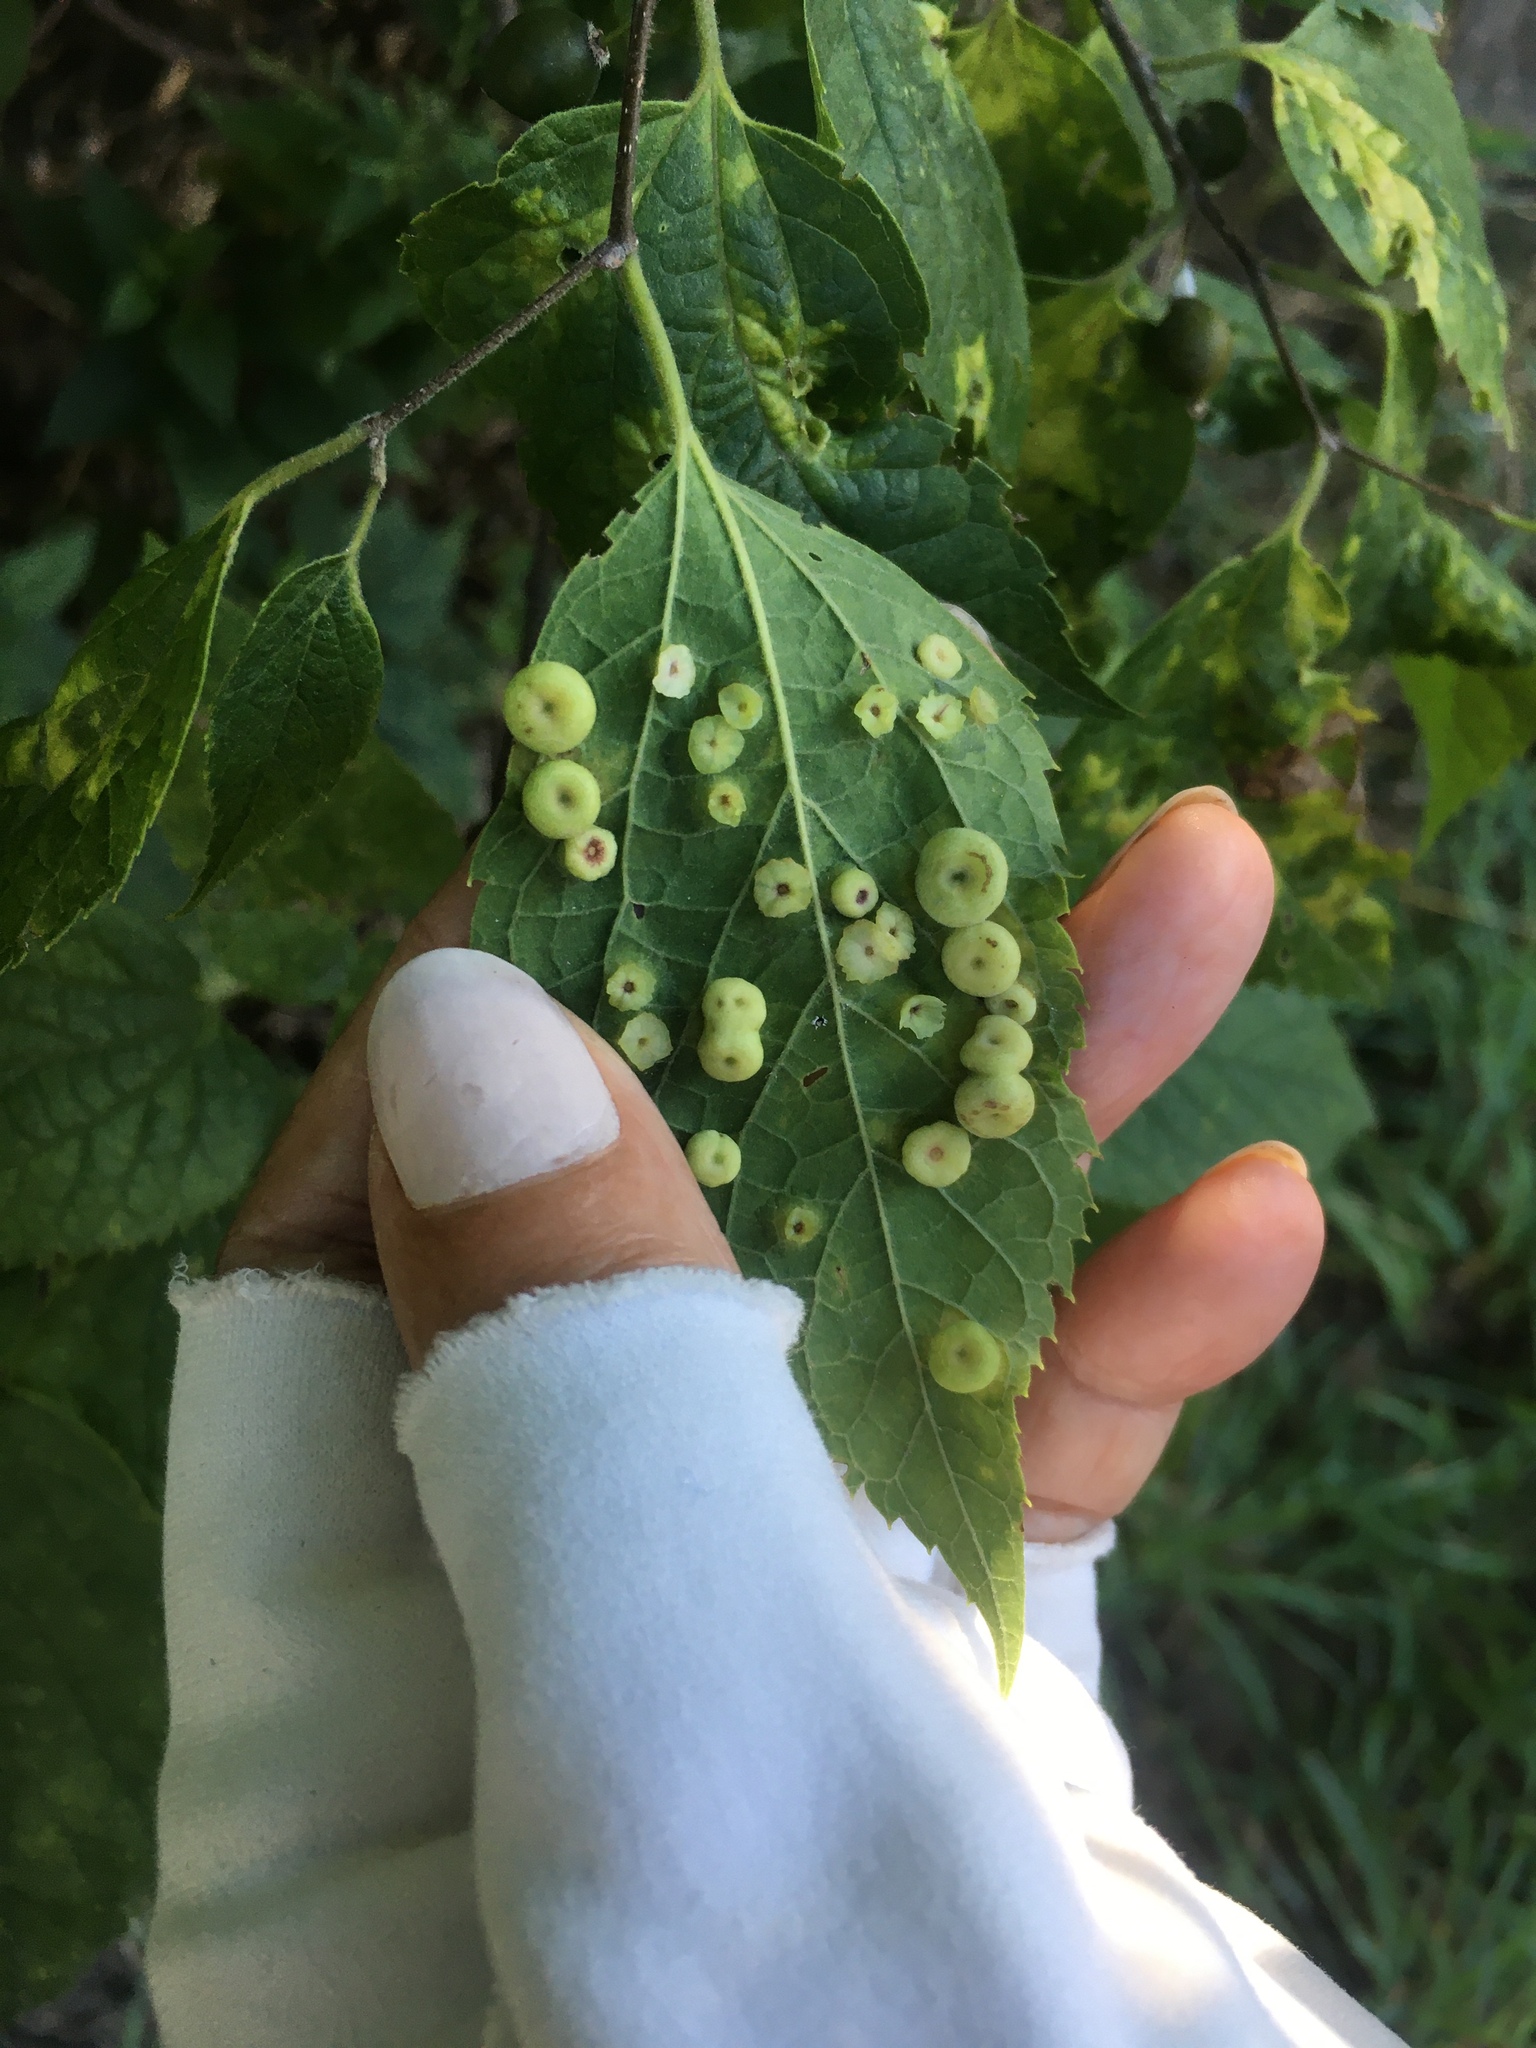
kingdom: Animalia
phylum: Arthropoda
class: Insecta
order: Hemiptera
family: Aphalaridae
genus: Pachypsylla
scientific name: Pachypsylla celtidisasterisca
